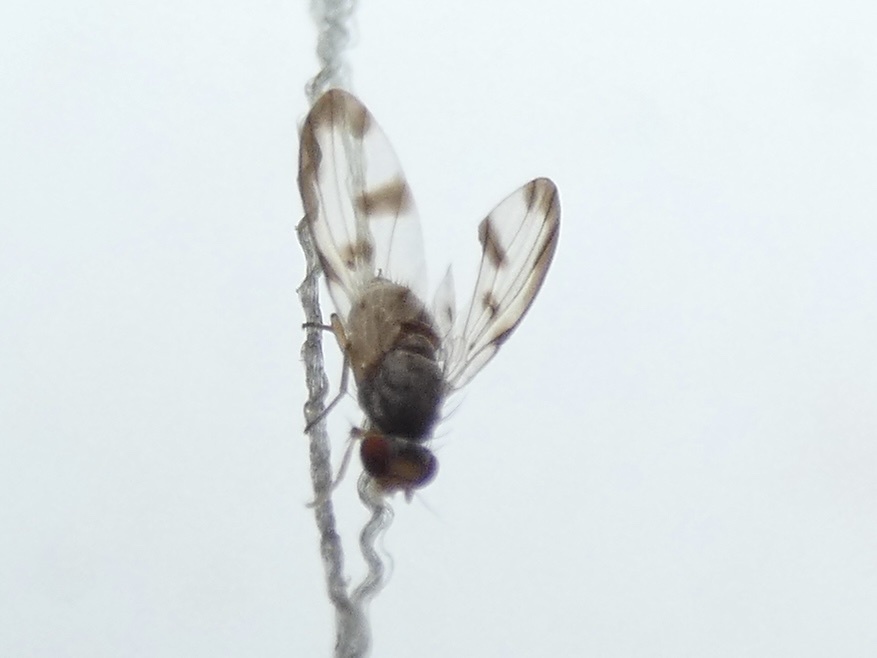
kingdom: Animalia
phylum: Arthropoda
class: Insecta
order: Diptera
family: Pallopteridae
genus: Palloptera
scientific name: Palloptera umbellatarum
